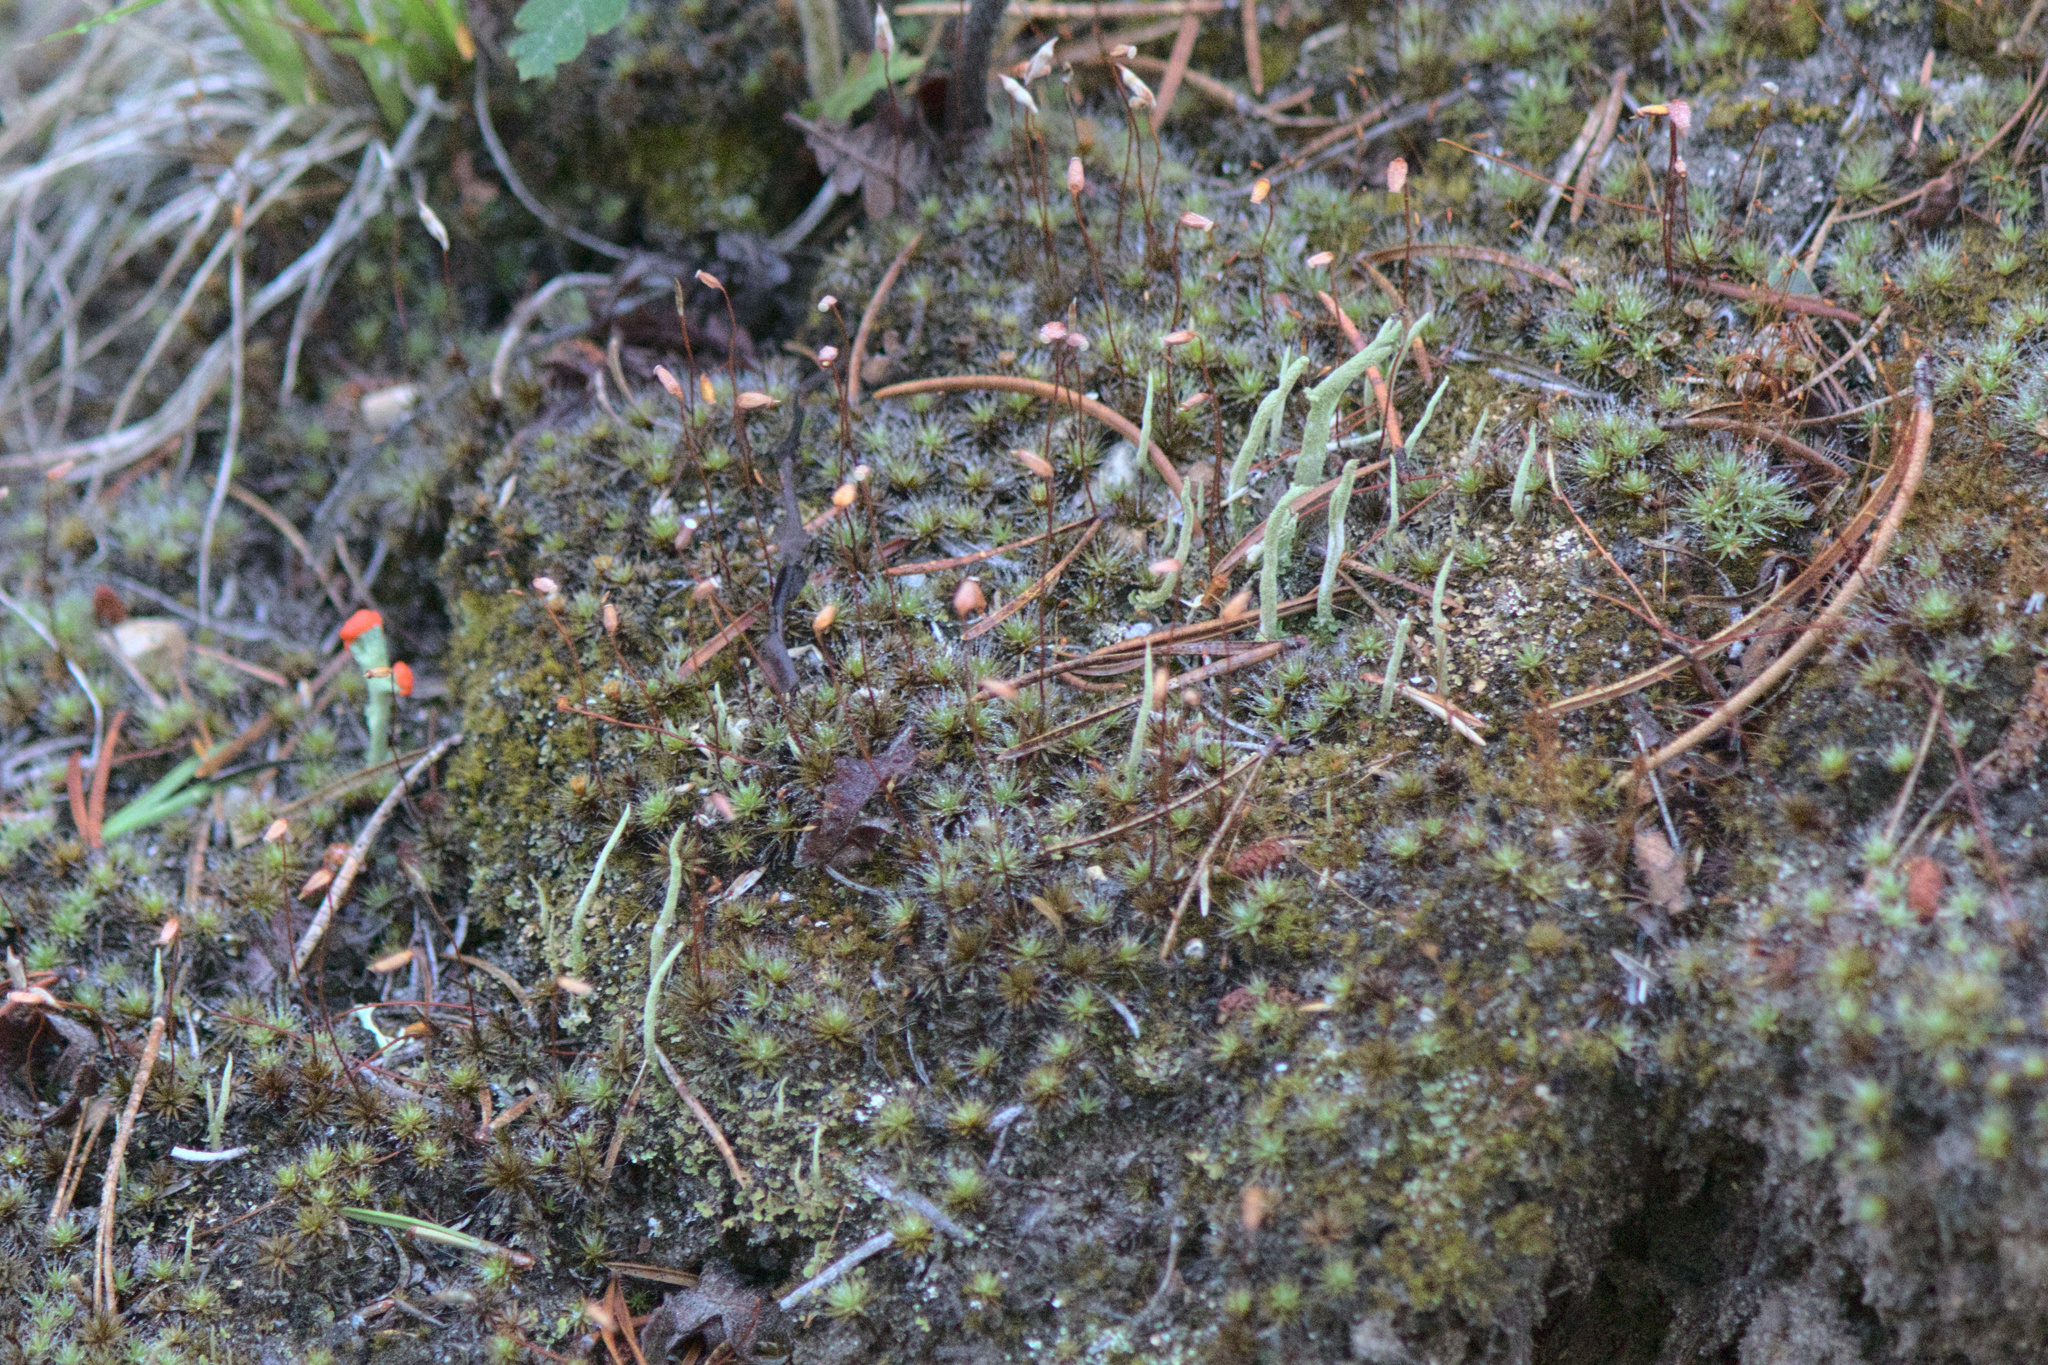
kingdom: Plantae
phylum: Bryophyta
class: Polytrichopsida
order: Polytrichales
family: Polytrichaceae
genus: Polytrichum
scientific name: Polytrichum piliferum
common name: Bristly haircap
